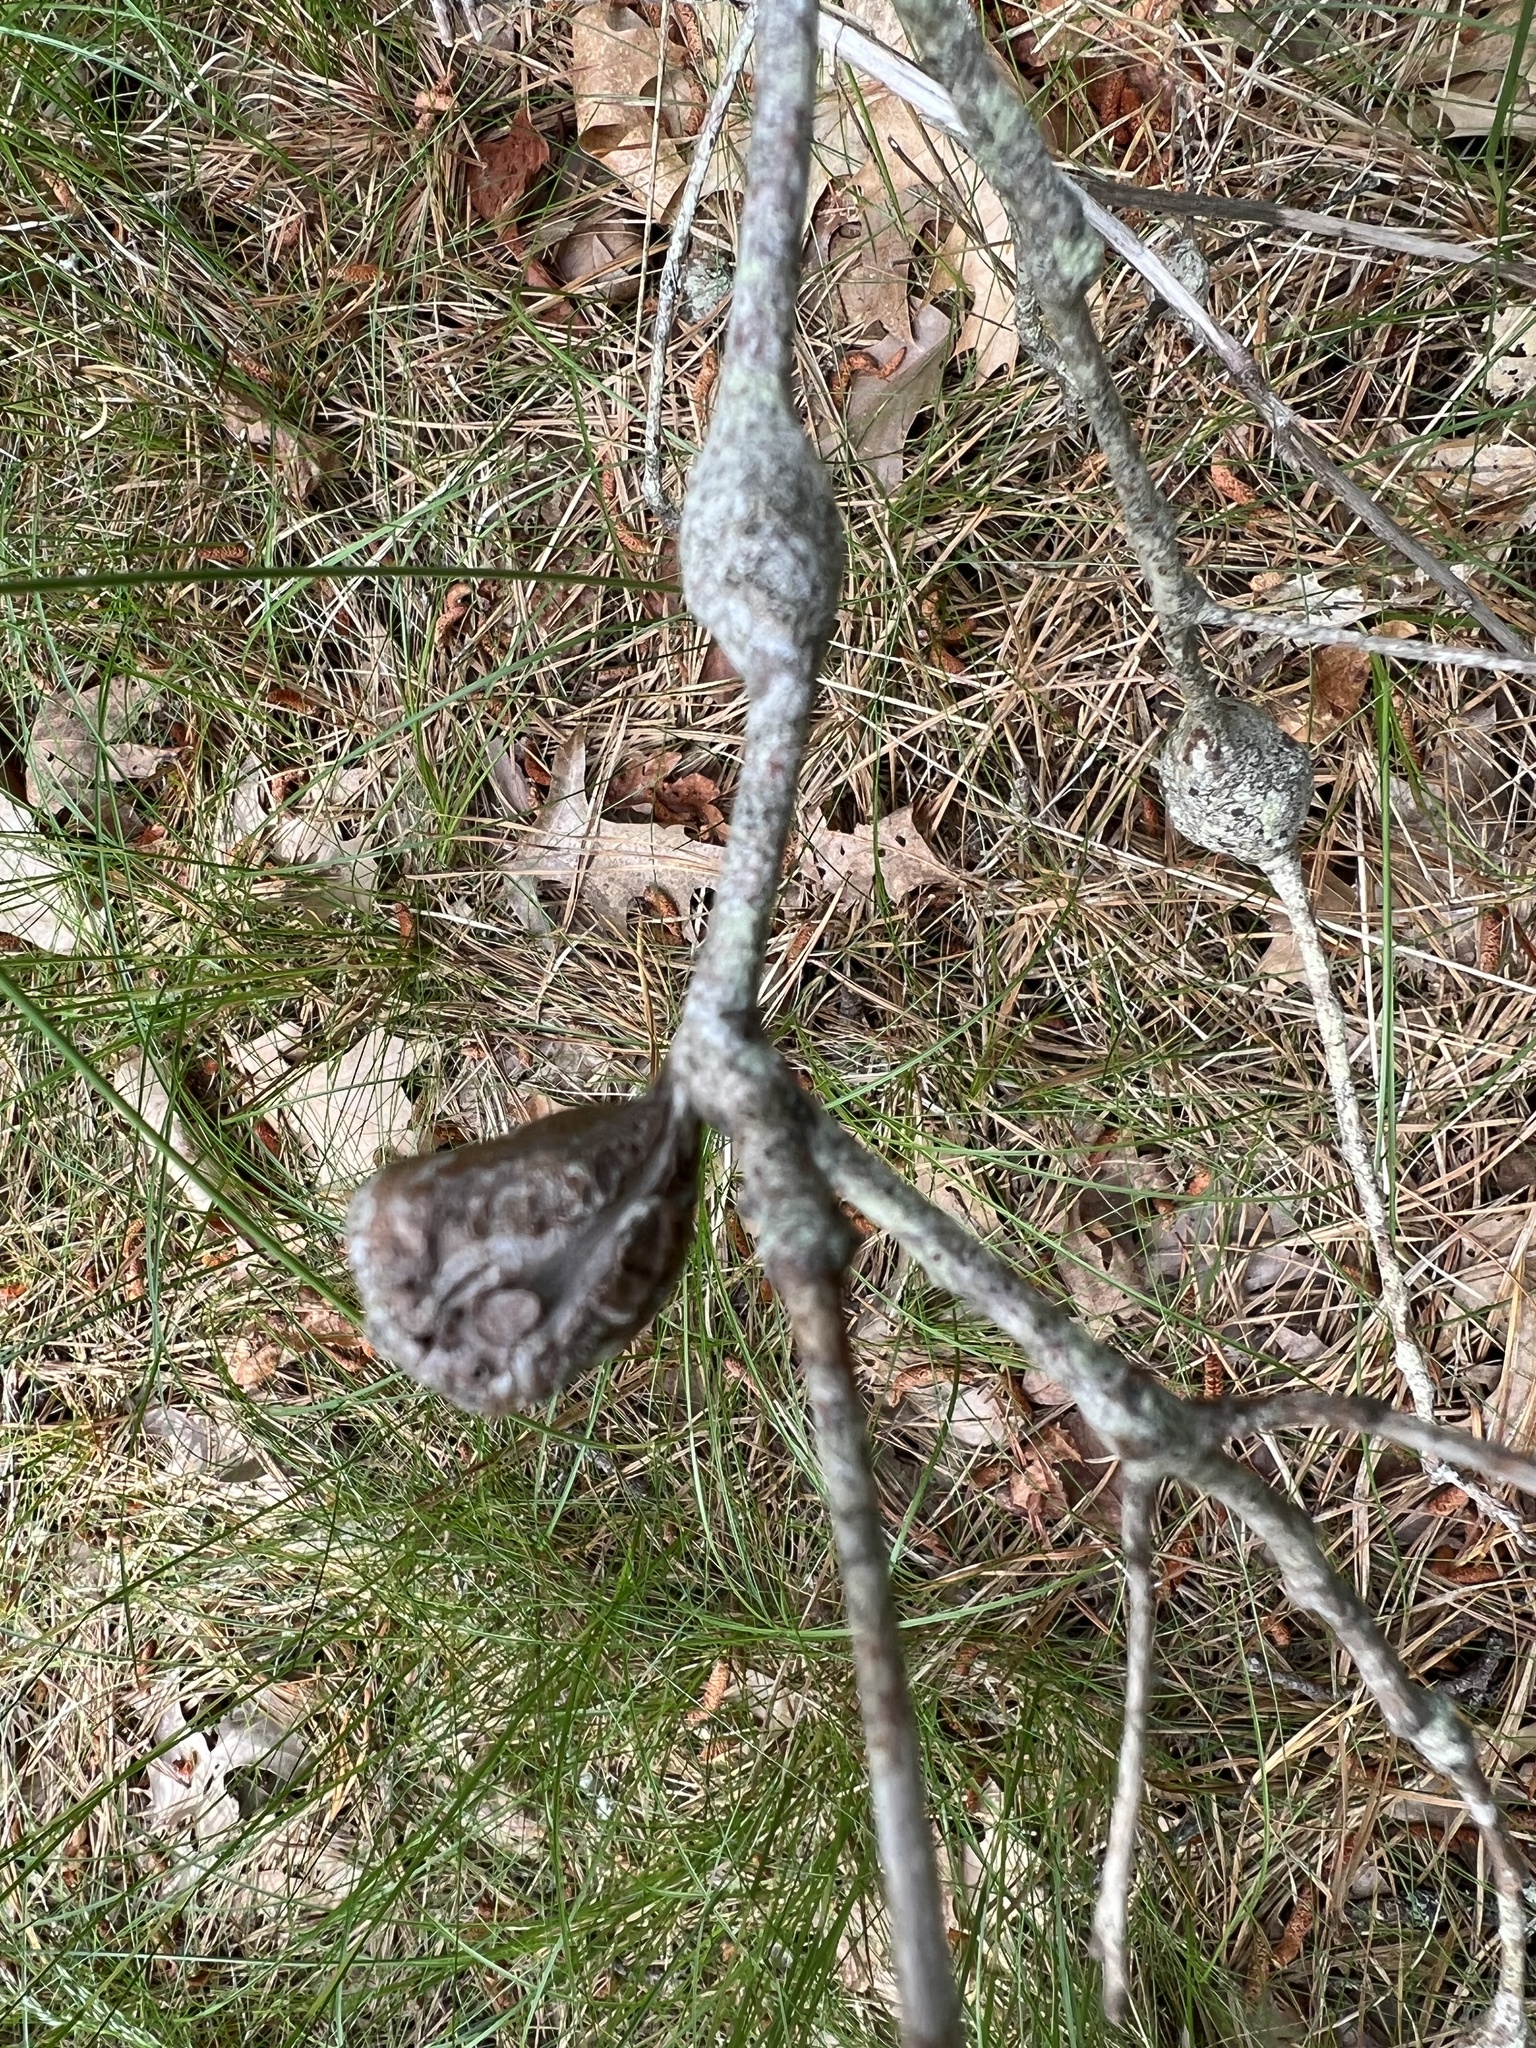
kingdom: Animalia
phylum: Arthropoda
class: Insecta
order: Hymenoptera
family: Cynipidae
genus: Zapatella
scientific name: Zapatella quercusphellos
